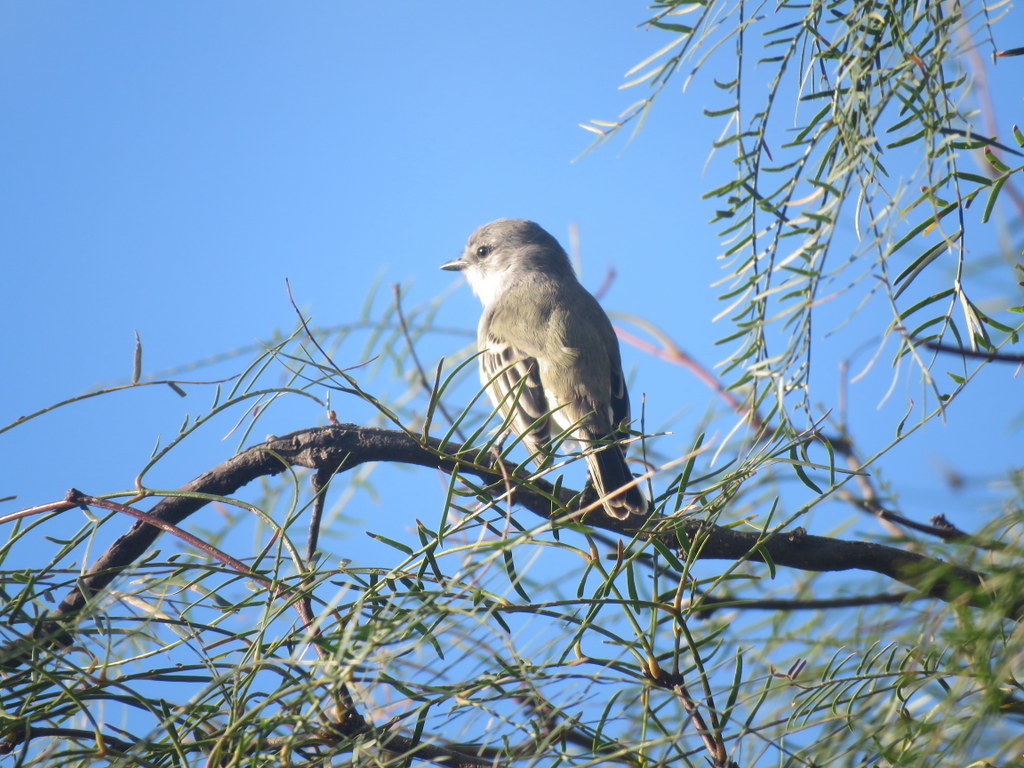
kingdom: Animalia
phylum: Chordata
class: Aves
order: Passeriformes
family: Tyrannidae
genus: Suiriri
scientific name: Suiriri suiriri
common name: Suiriri flycatcher
